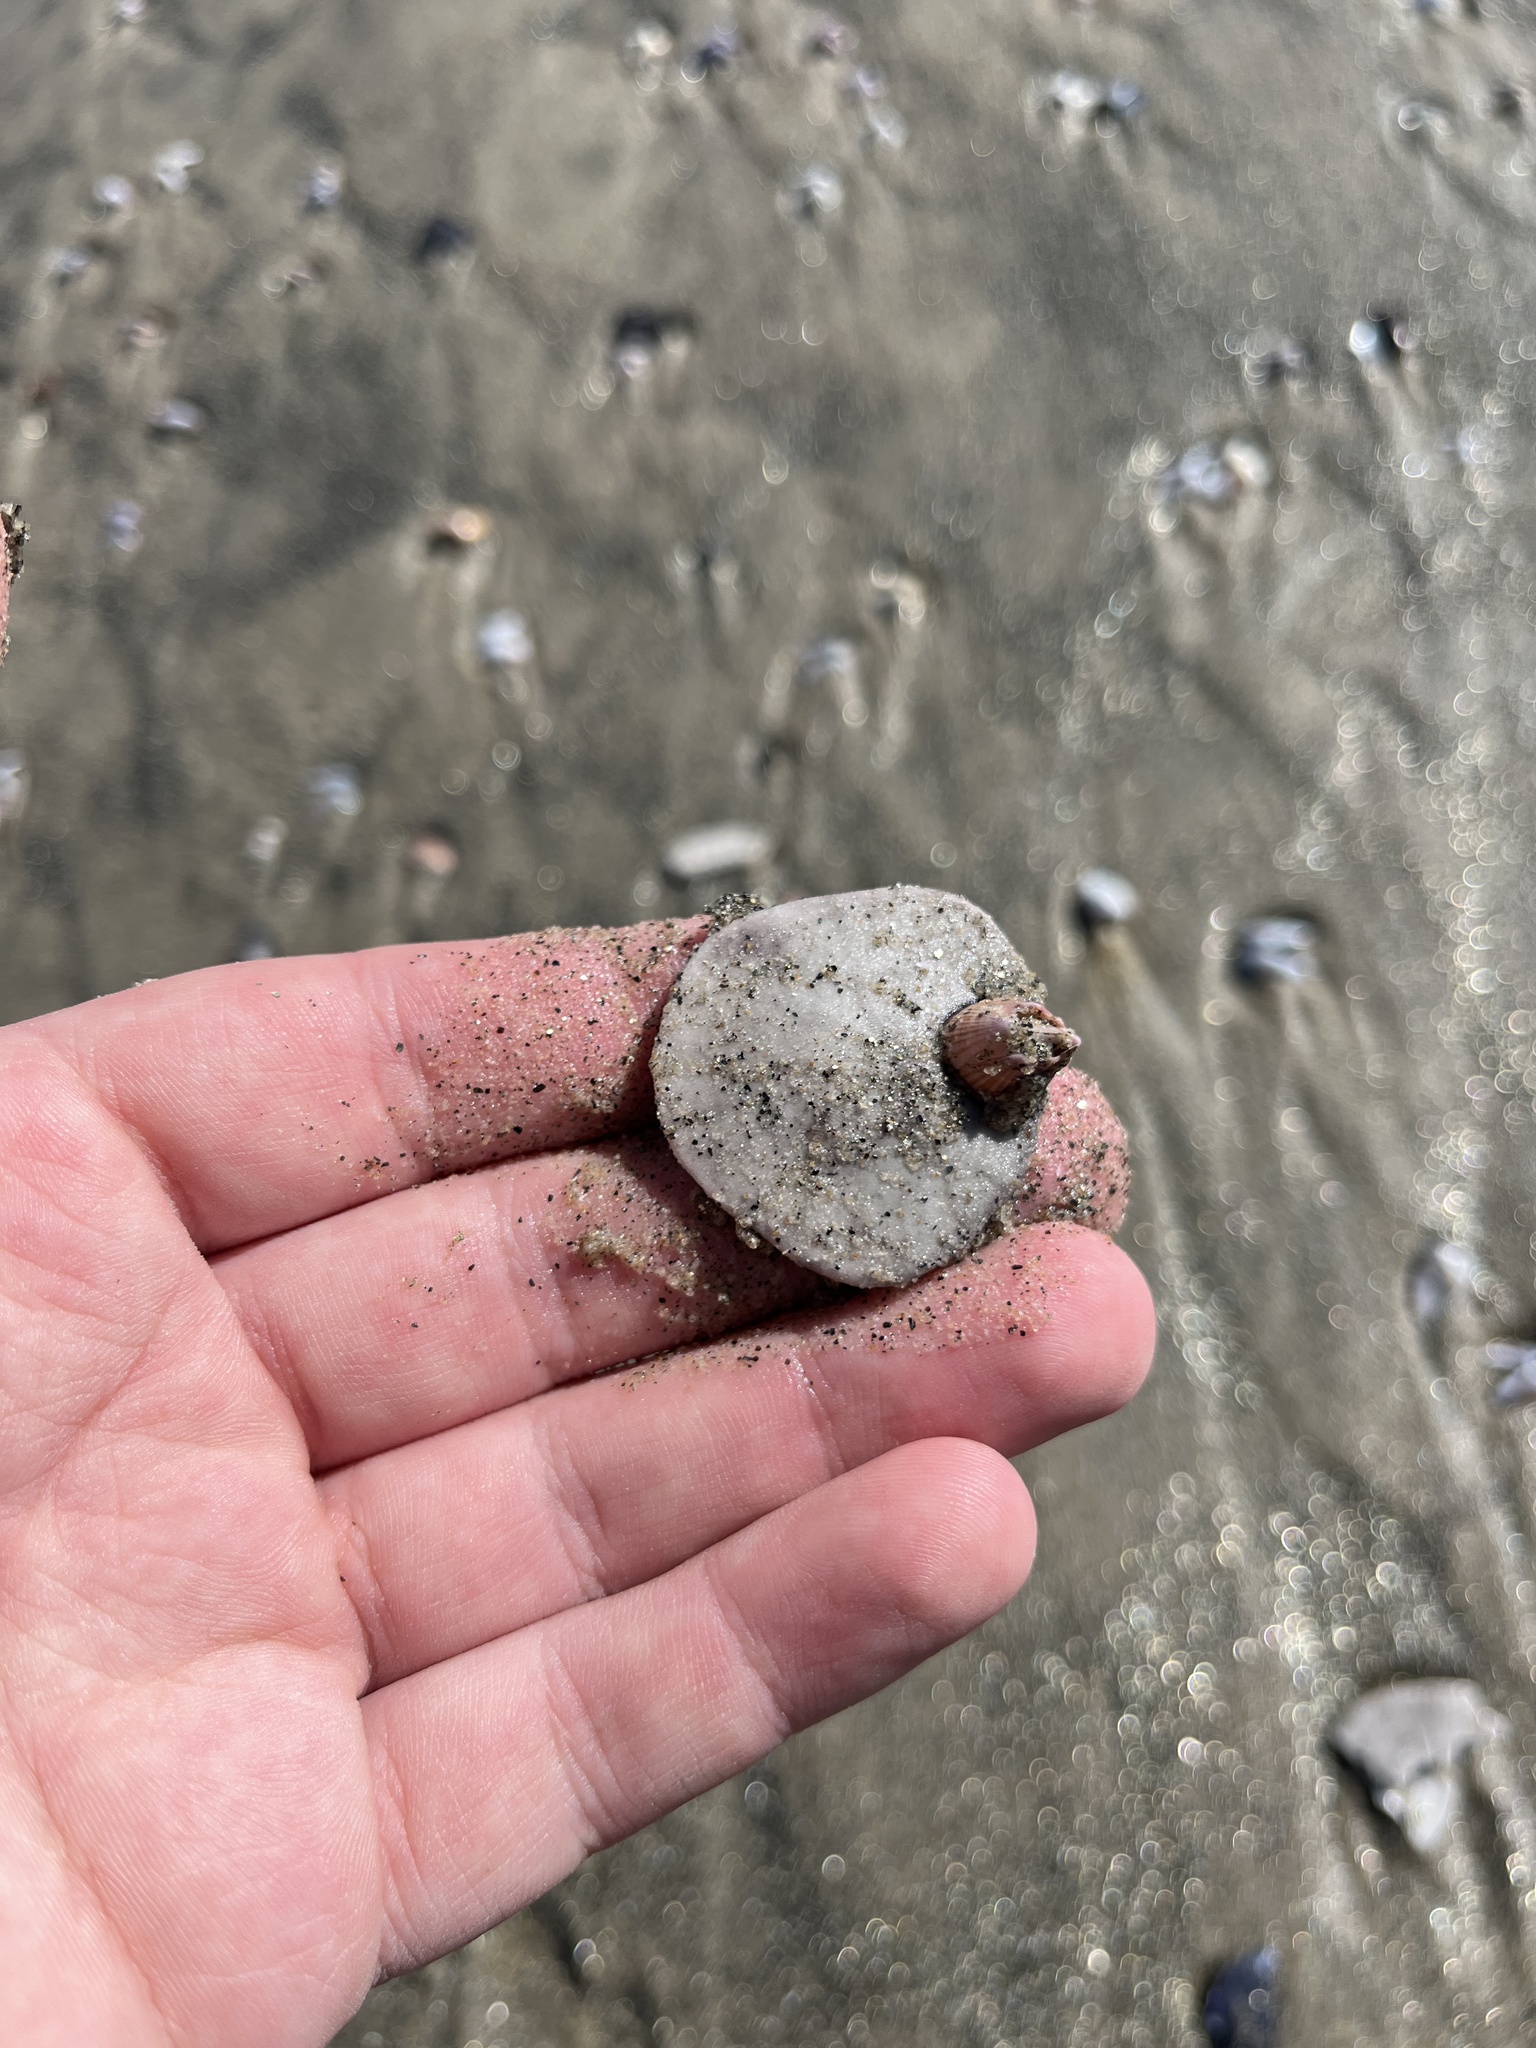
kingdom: Animalia
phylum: Echinodermata
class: Echinoidea
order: Echinolampadacea
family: Dendrasteridae
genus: Dendraster
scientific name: Dendraster excentricus
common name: Eccentric sand dollar sea urchin
